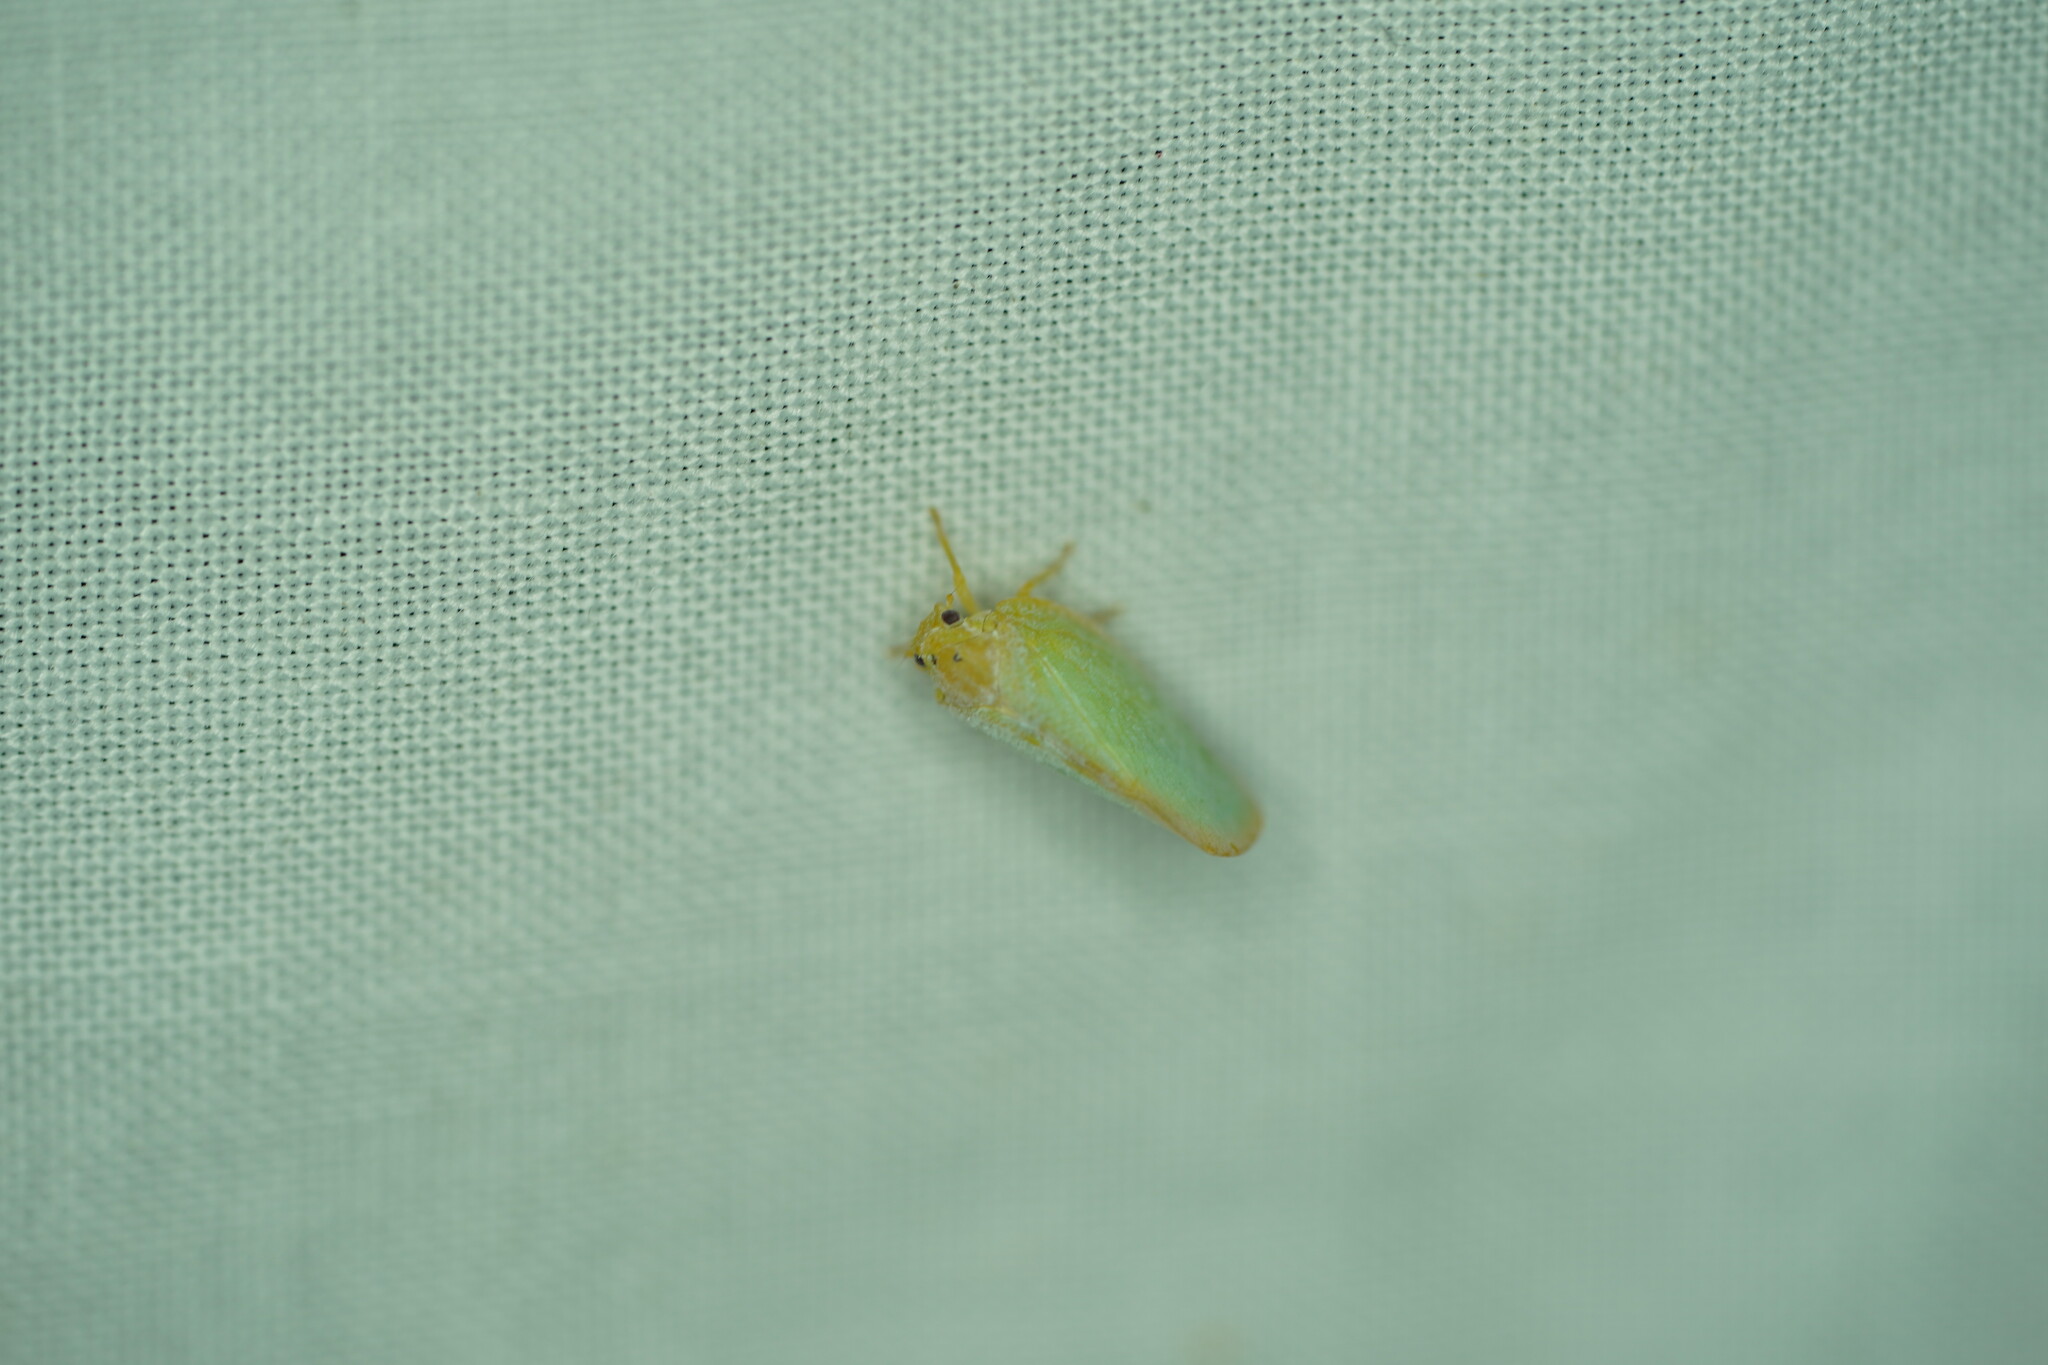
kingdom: Animalia
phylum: Arthropoda
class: Insecta
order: Hemiptera
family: Flatidae
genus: Ormenoides
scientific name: Ormenoides venusta
